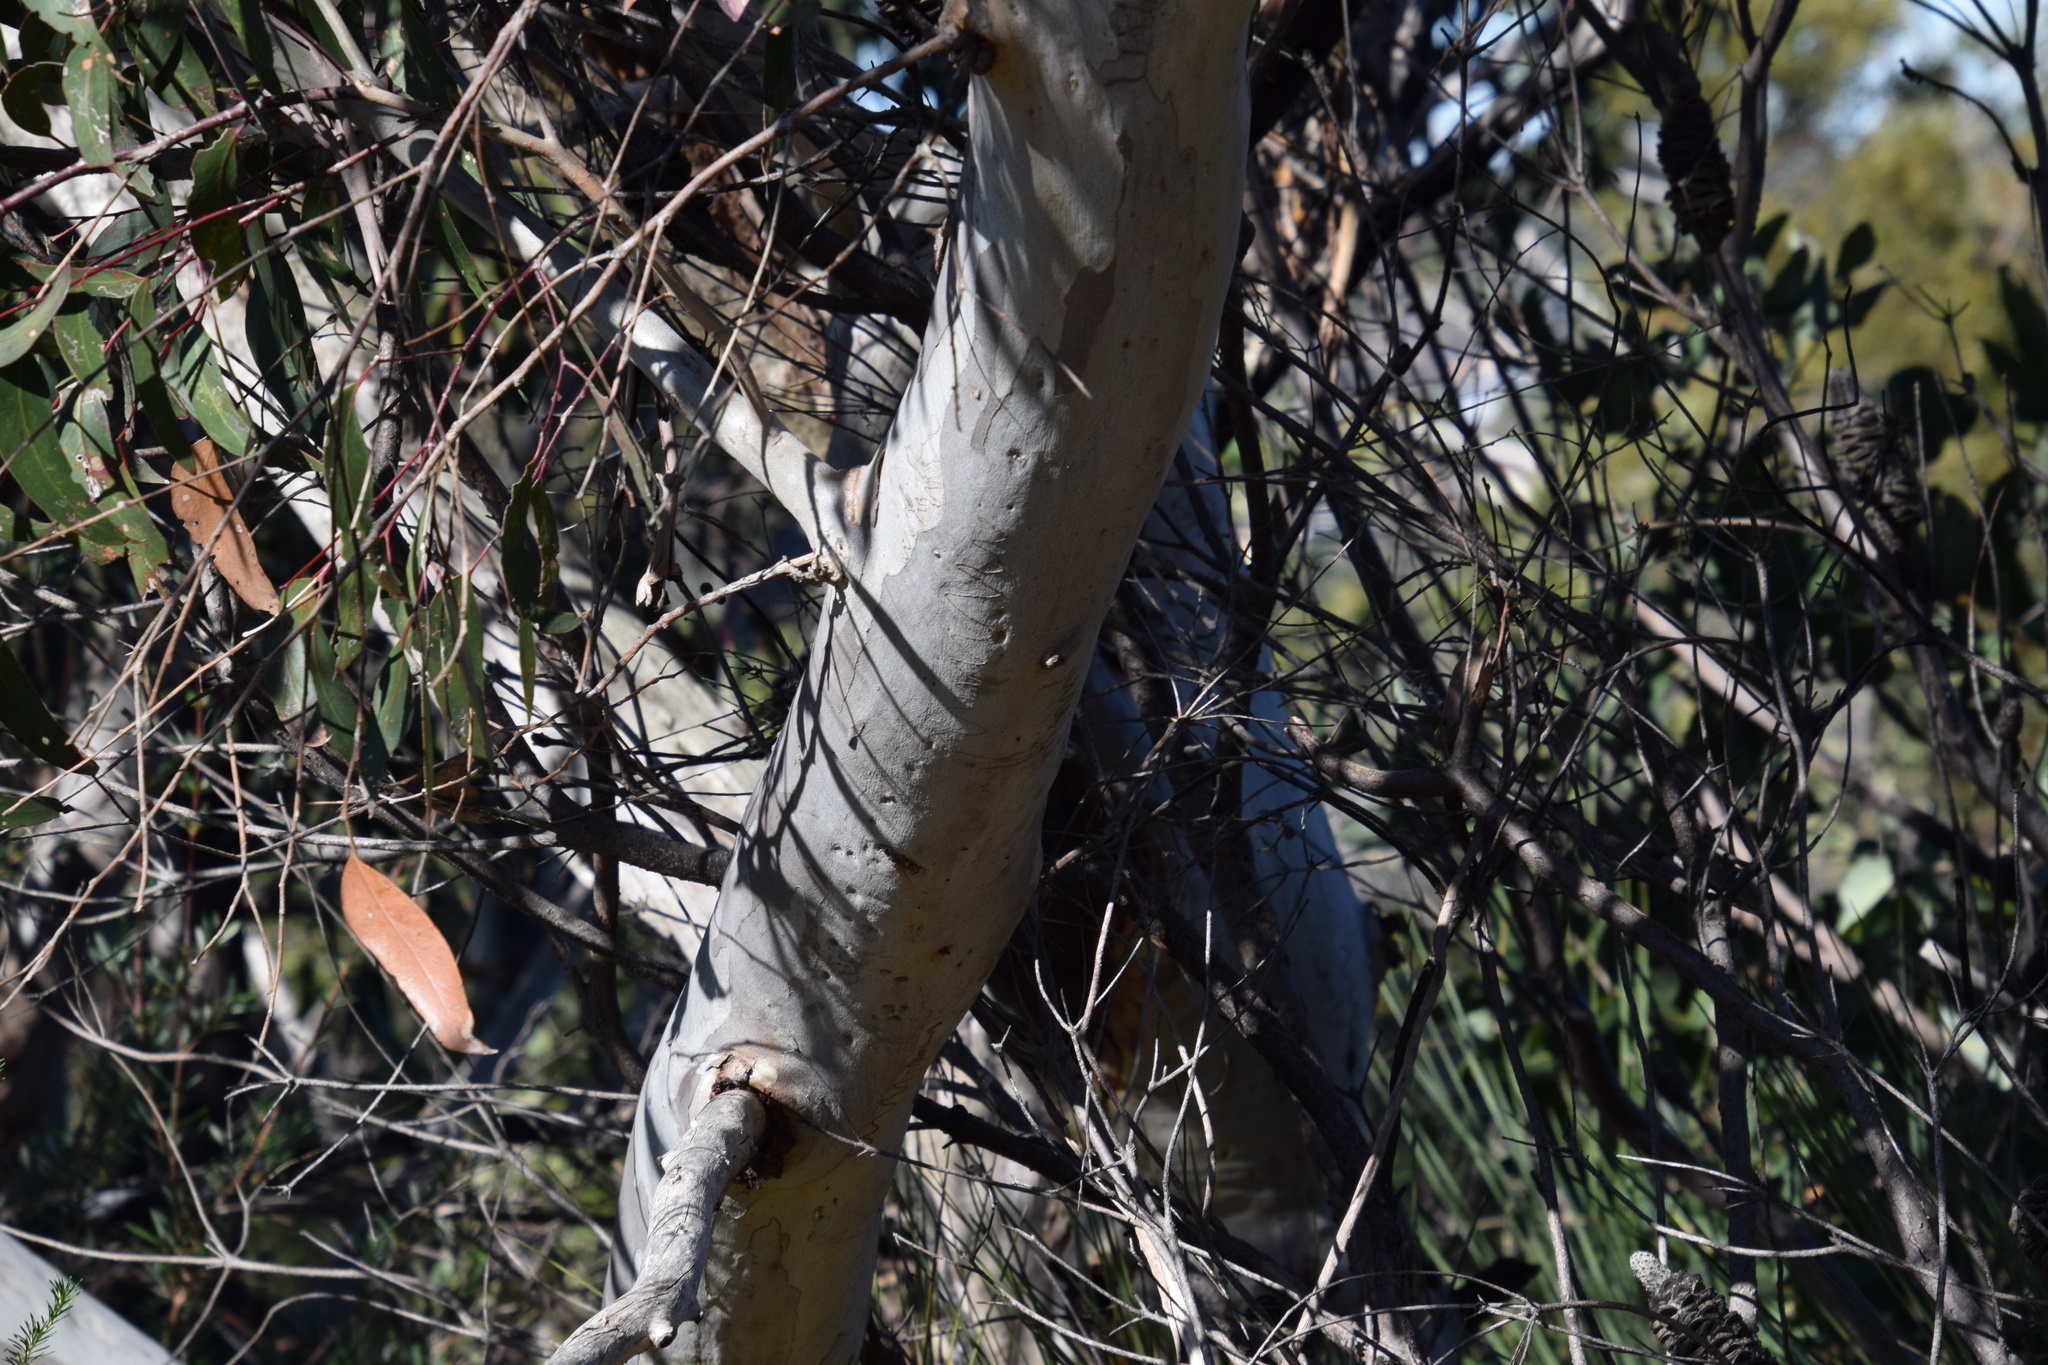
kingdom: Plantae
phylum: Tracheophyta
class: Magnoliopsida
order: Myrtales
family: Myrtaceae
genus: Eucalyptus
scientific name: Eucalyptus haemastoma
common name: Scribbly-gum
